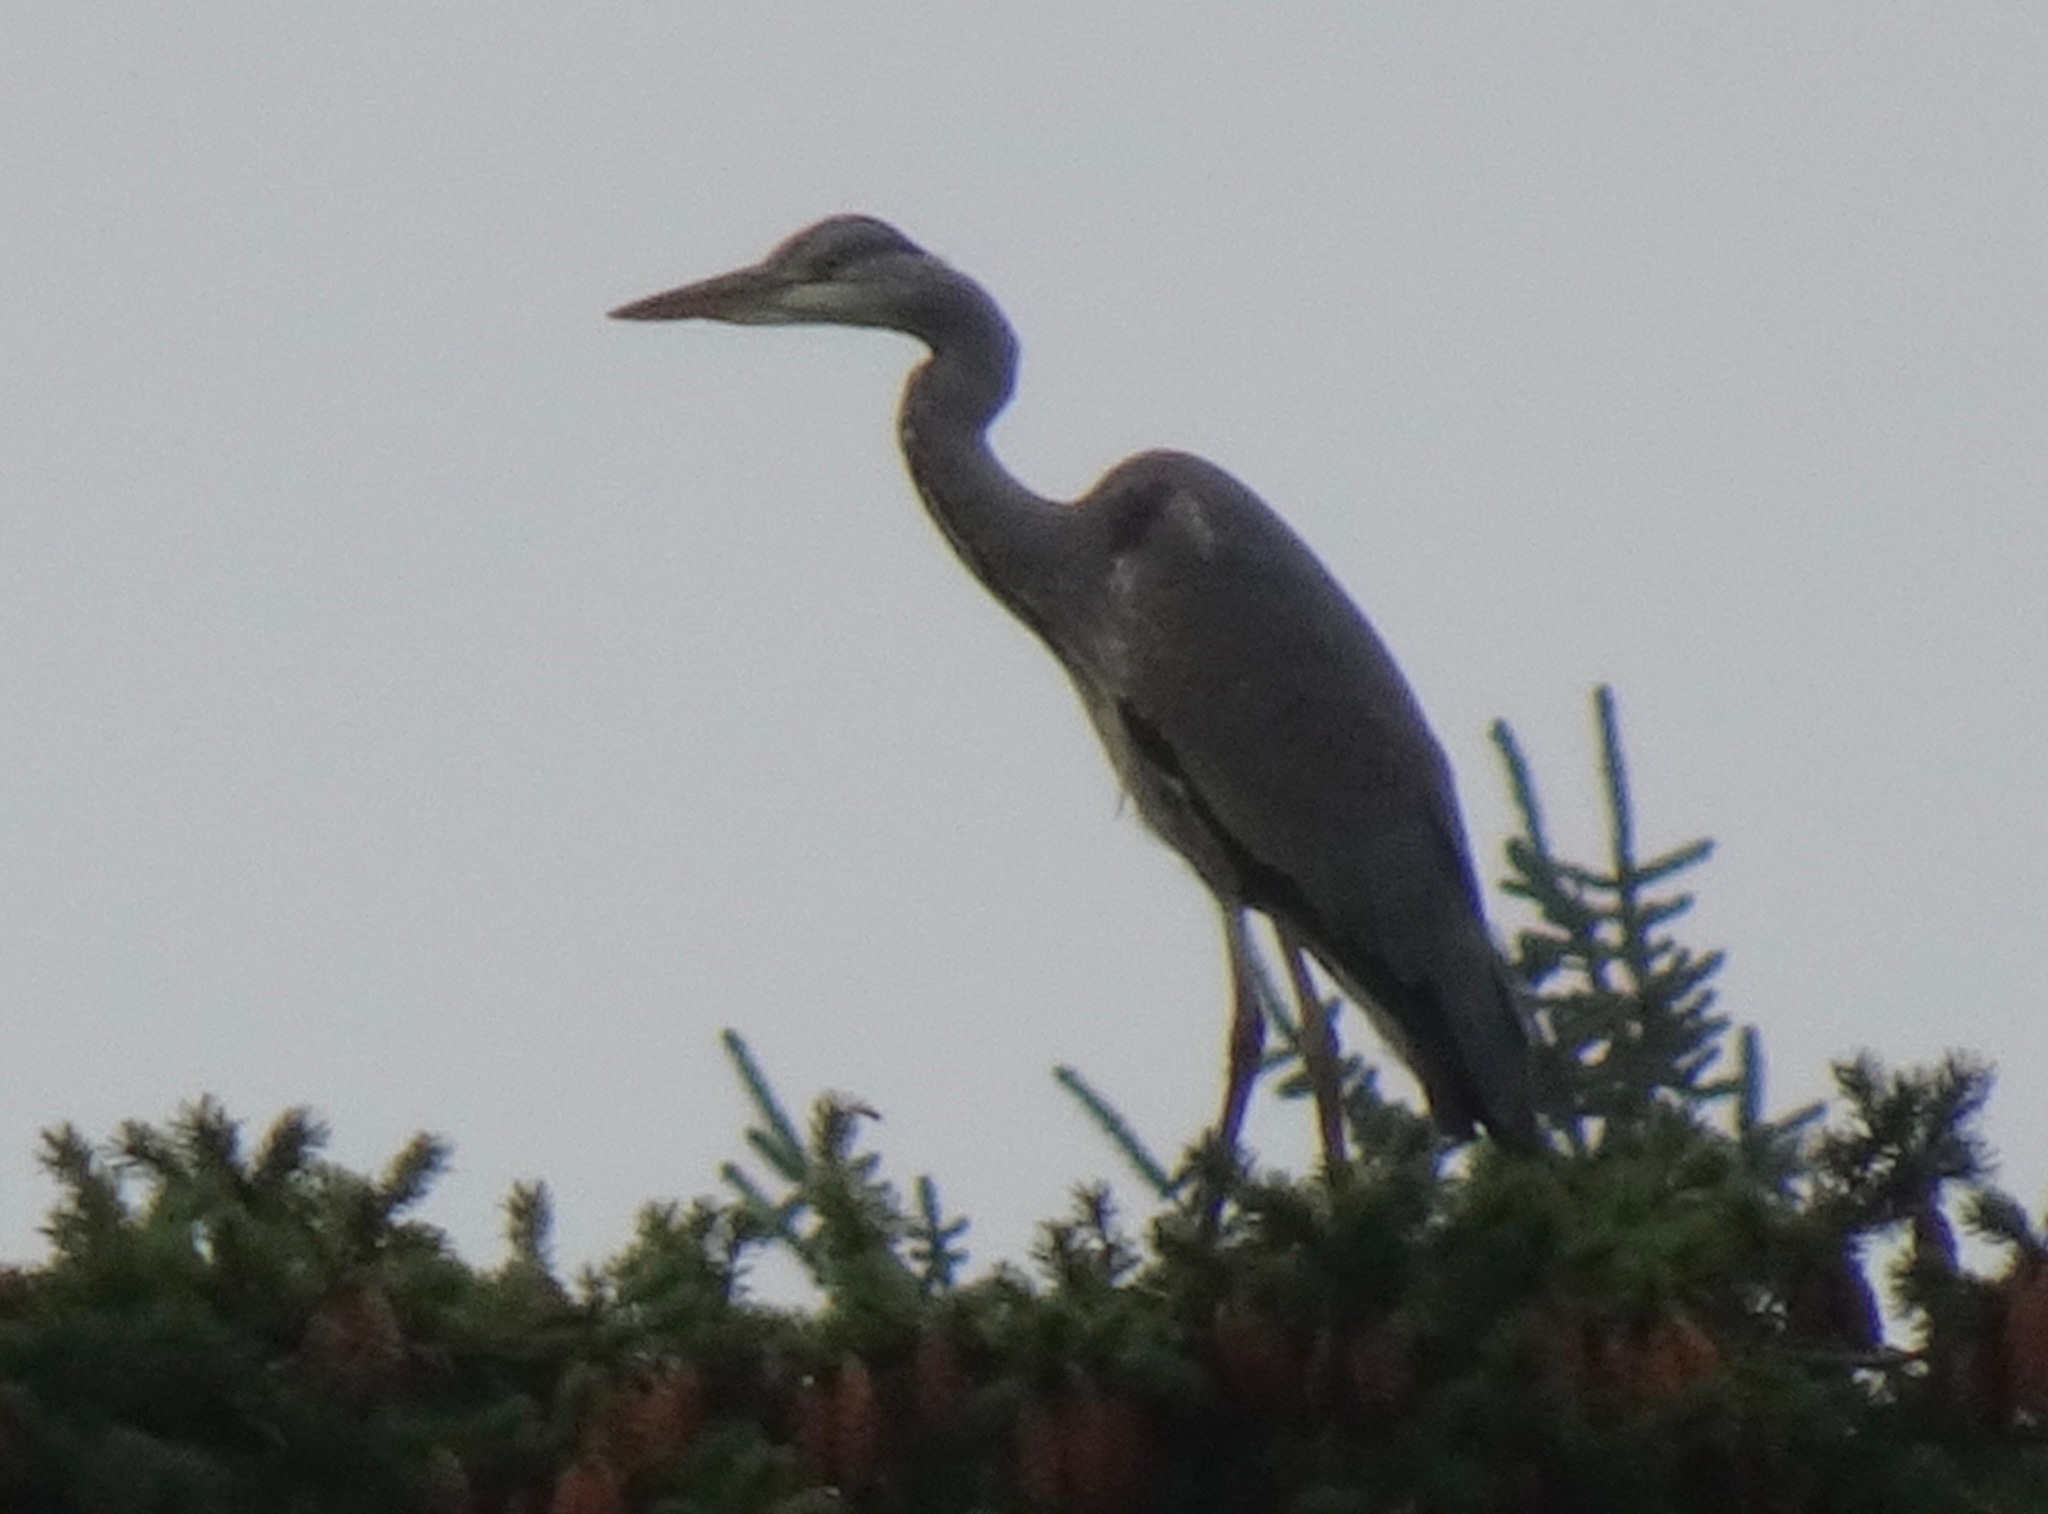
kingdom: Animalia
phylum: Chordata
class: Aves
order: Pelecaniformes
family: Ardeidae
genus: Ardea
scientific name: Ardea cinerea
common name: Grey heron
